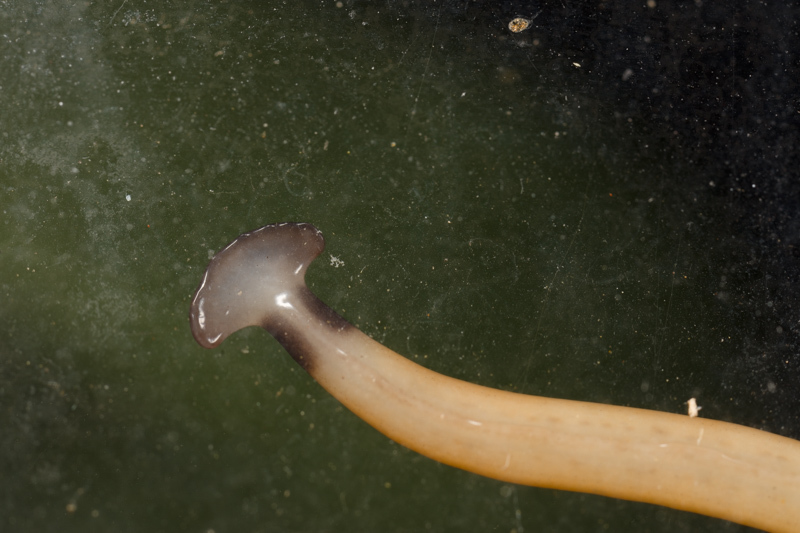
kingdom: Animalia
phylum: Platyhelminthes
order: Tricladida
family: Geoplanidae
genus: Bipalium
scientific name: Bipalium vagum
